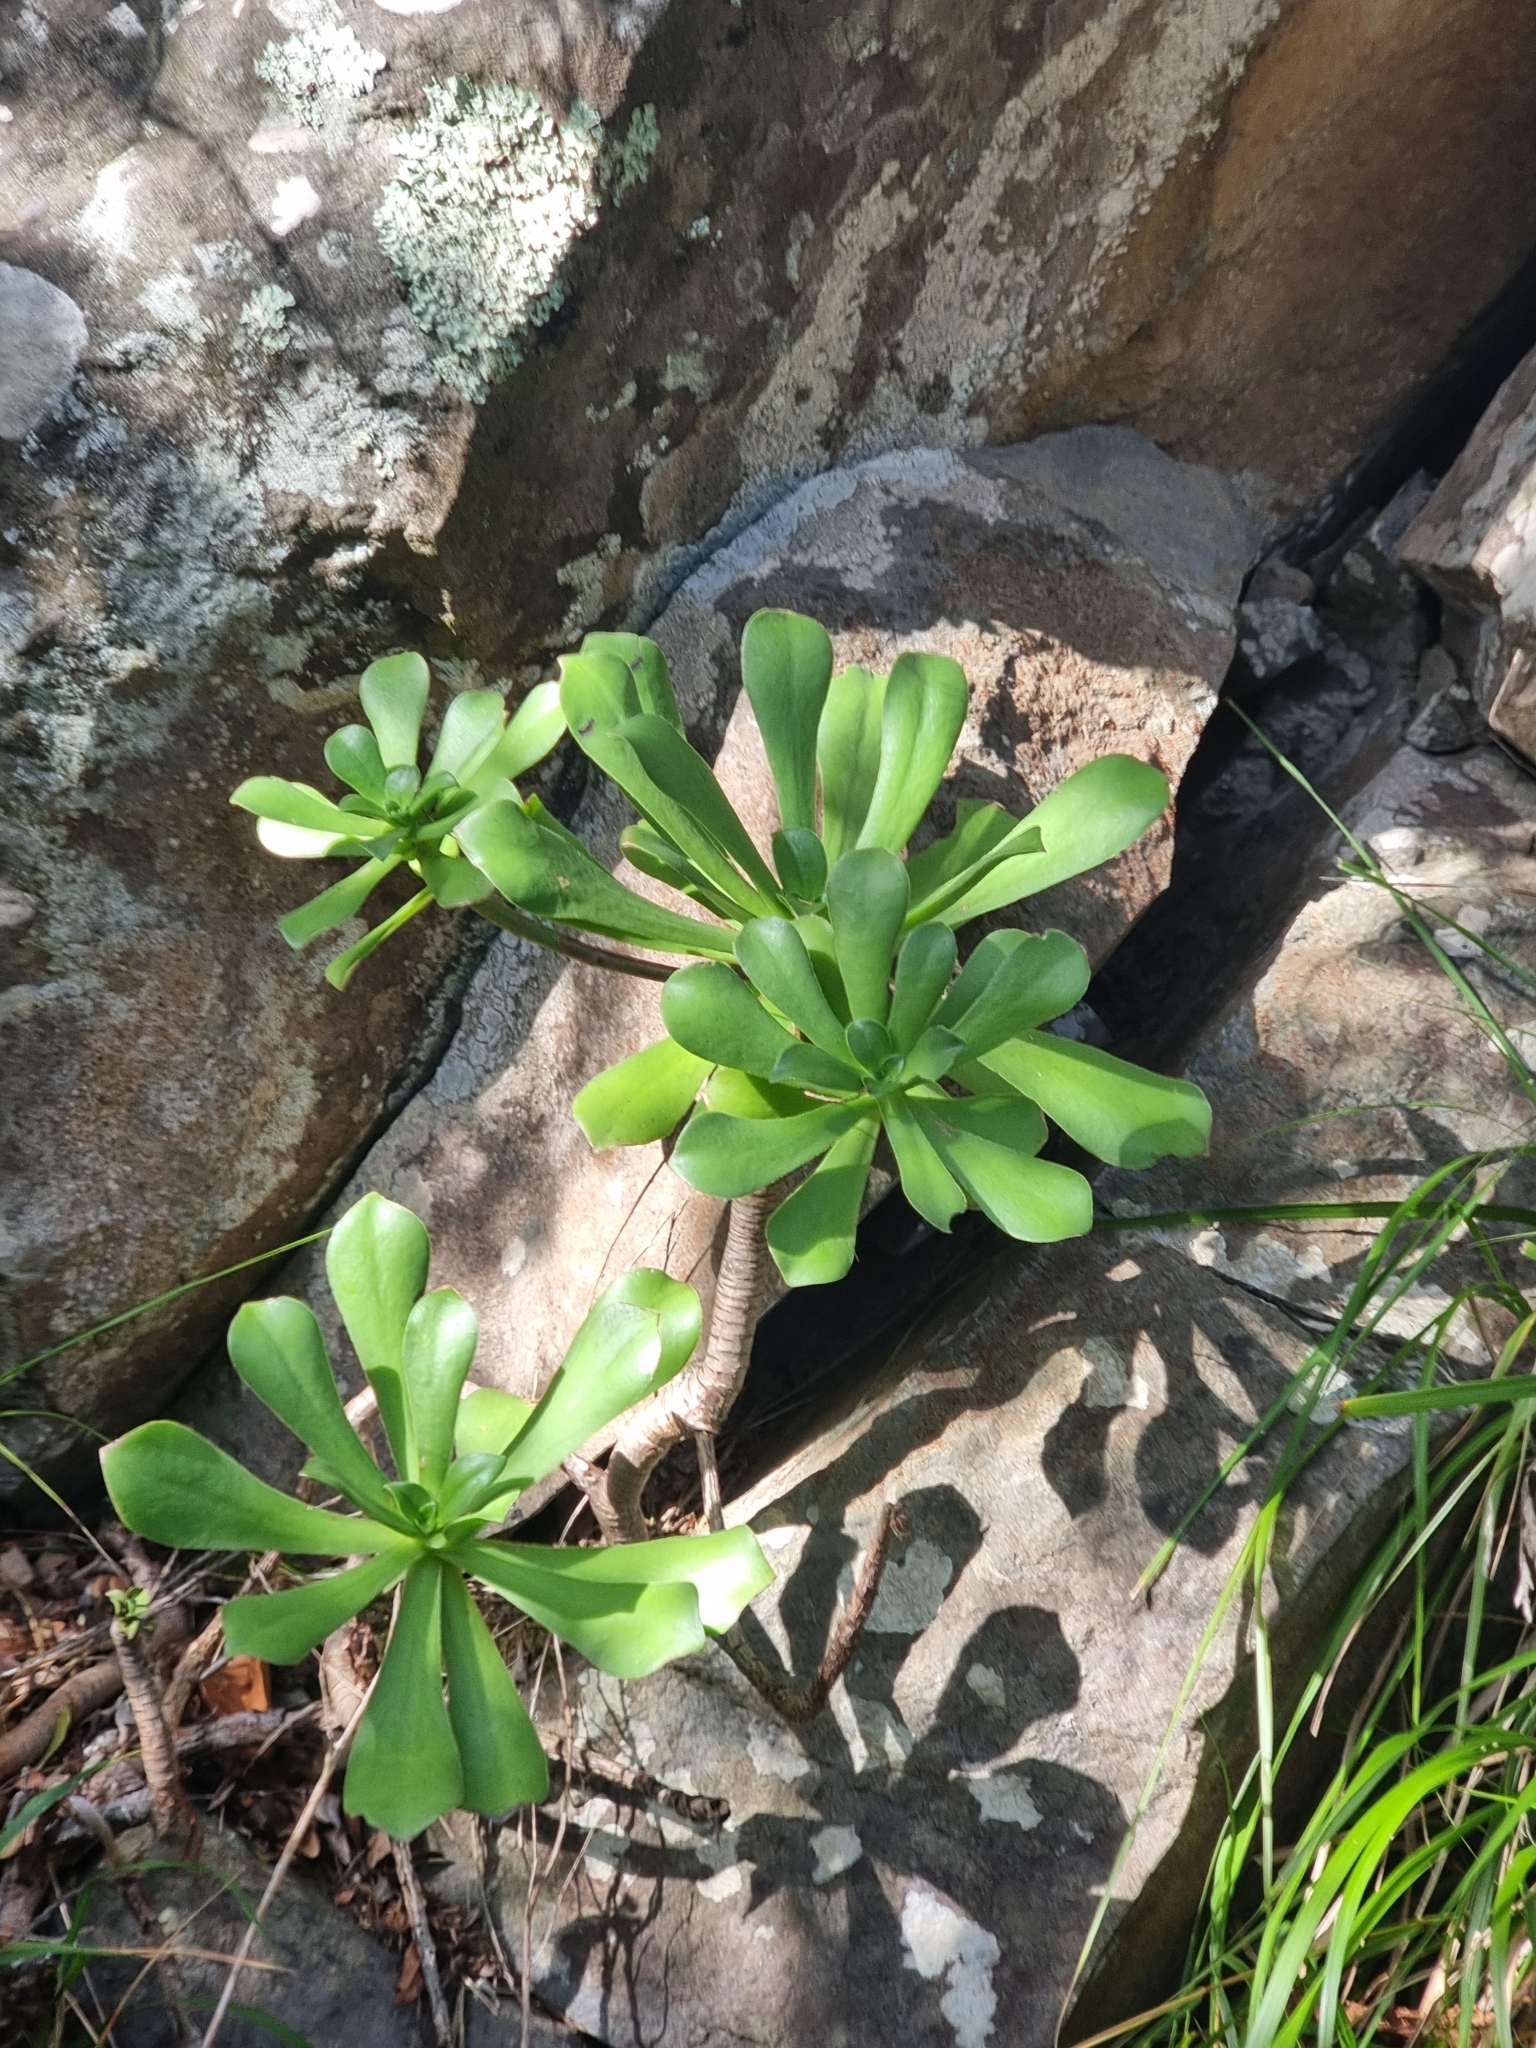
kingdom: Plantae
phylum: Tracheophyta
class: Magnoliopsida
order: Saxifragales
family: Crassulaceae
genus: Aeonium
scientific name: Aeonium glutinosum
